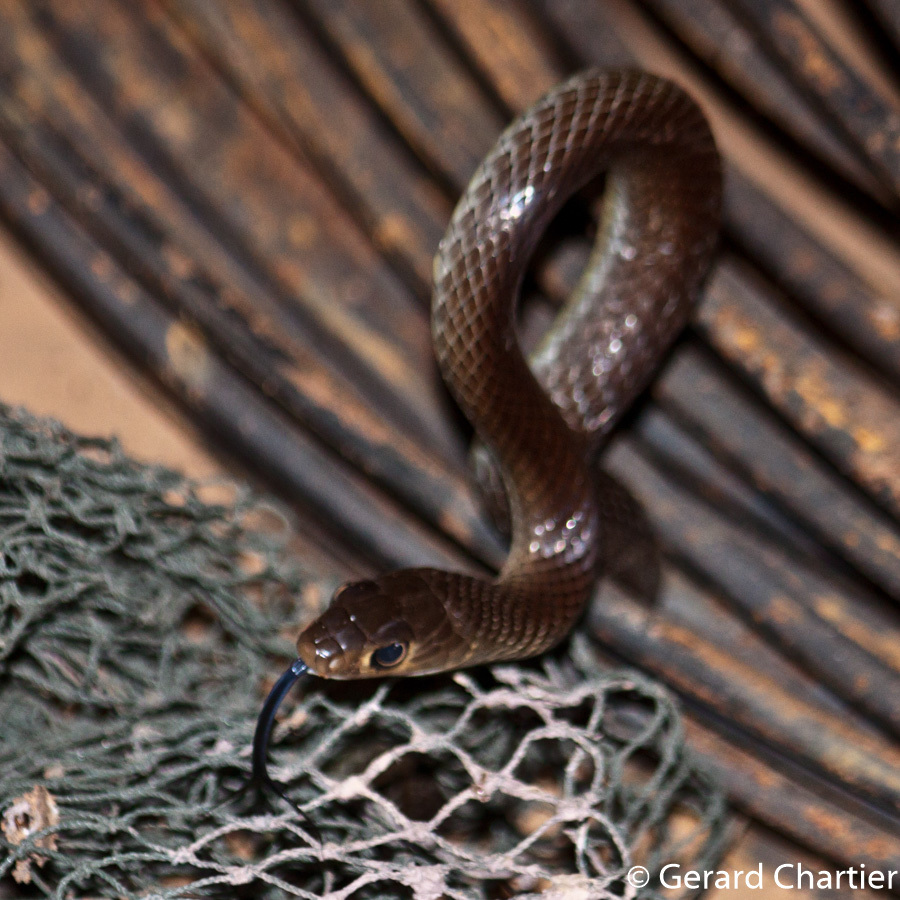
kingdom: Animalia
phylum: Chordata
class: Squamata
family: Colubridae
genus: Ptyas
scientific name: Ptyas korros
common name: Indo-chinese rat snake
